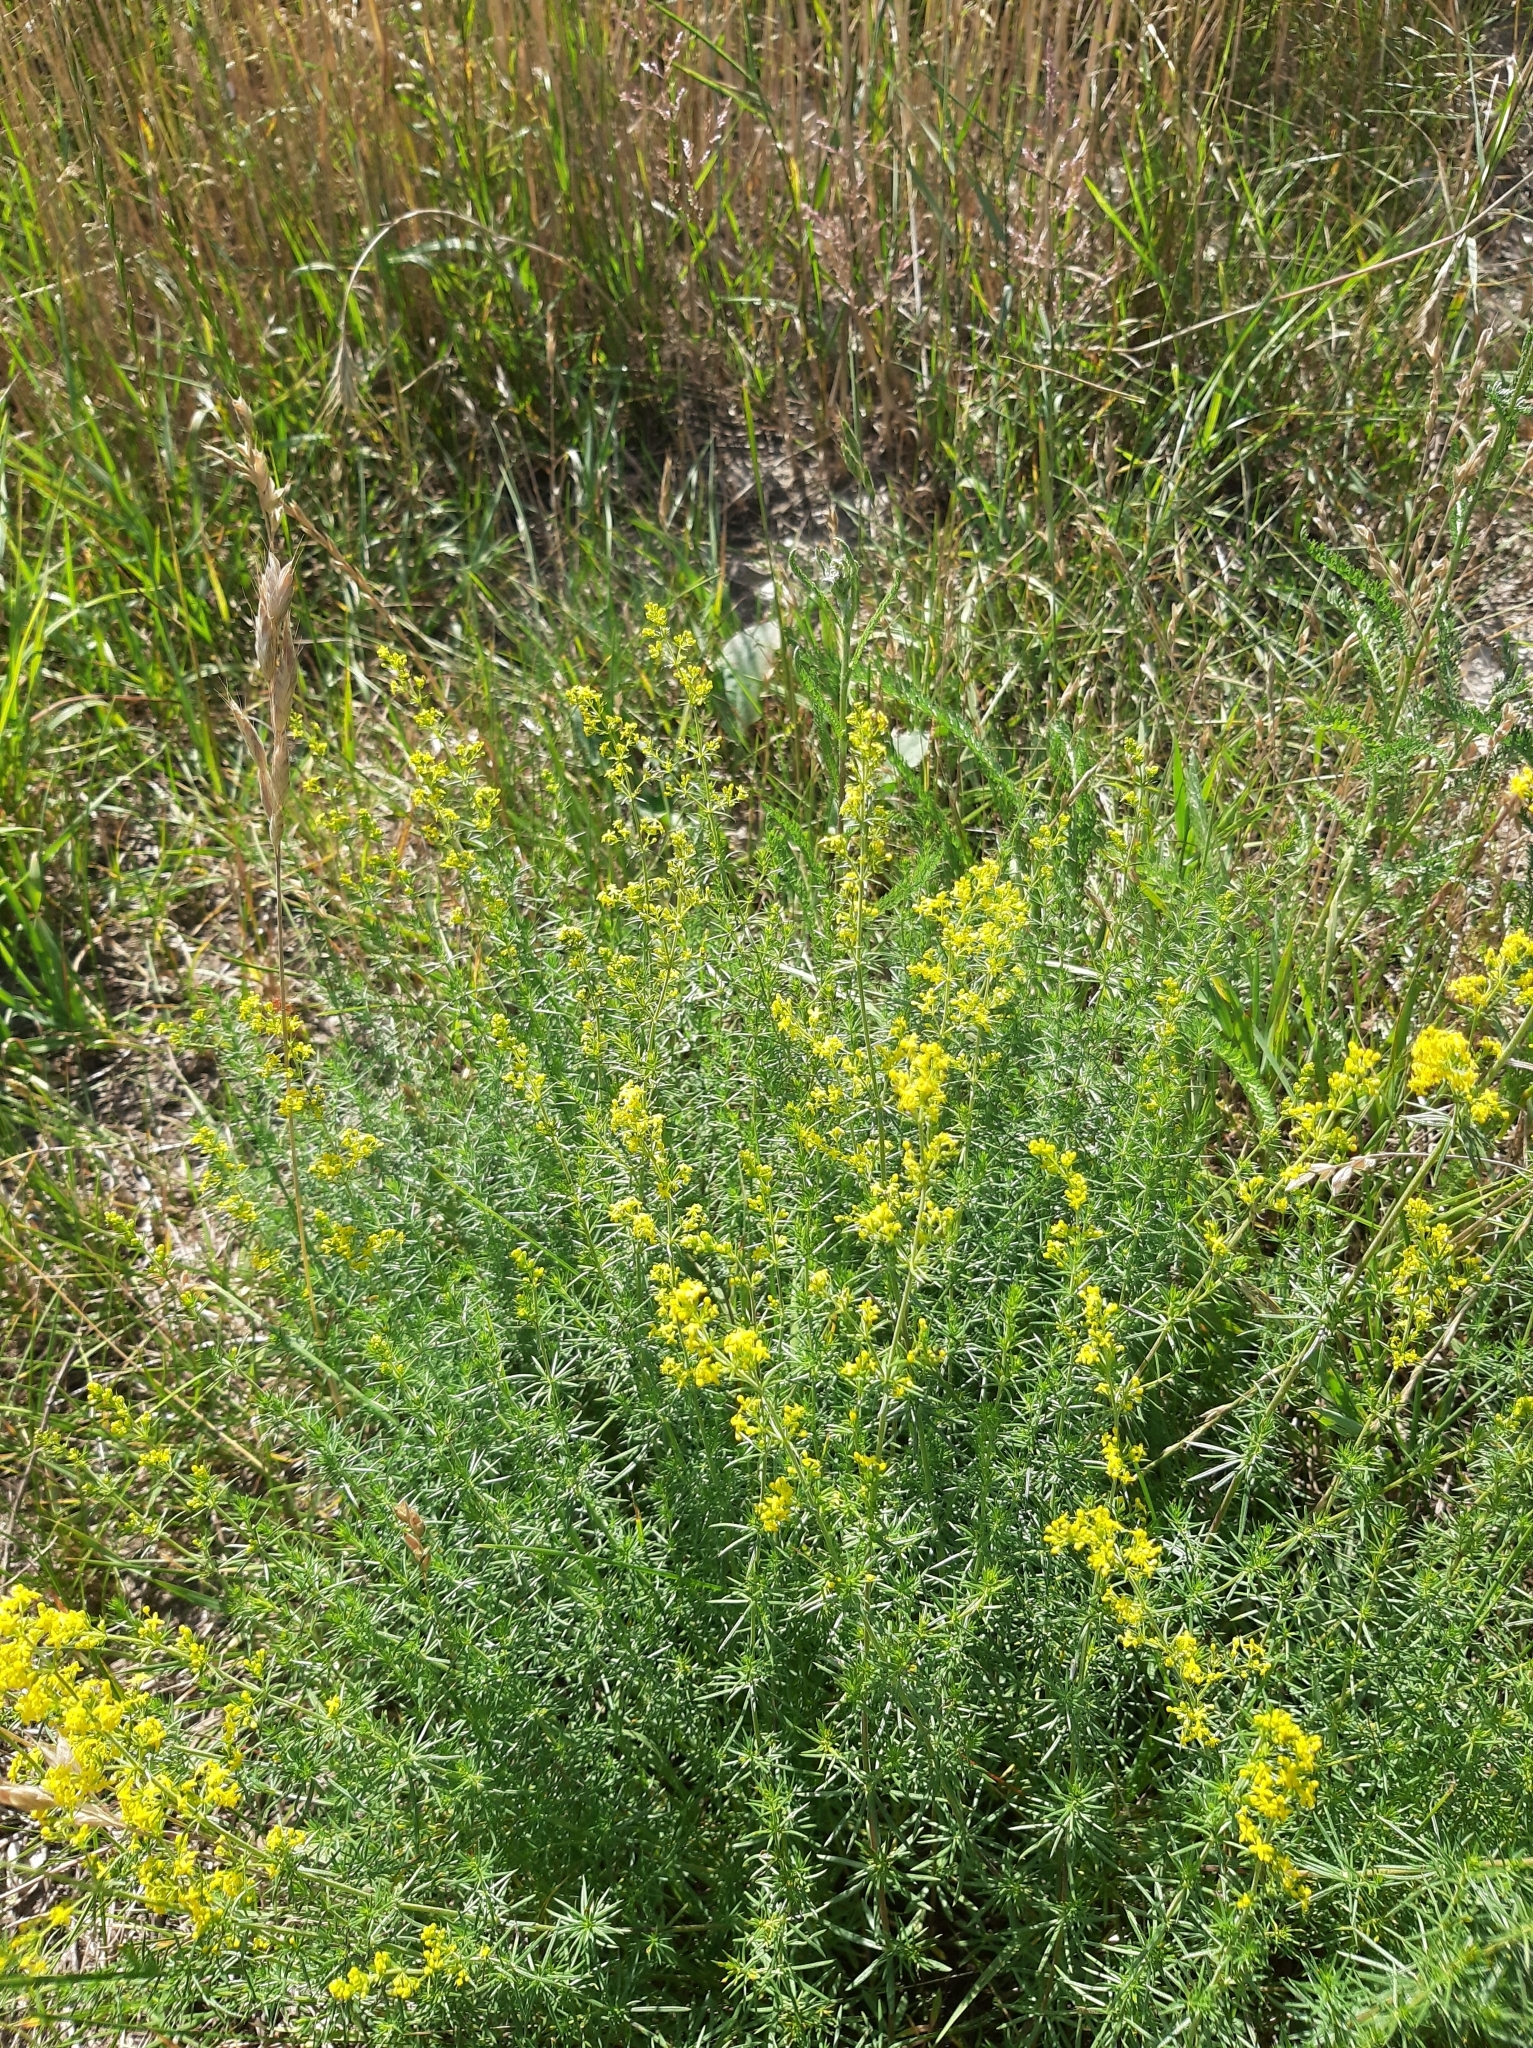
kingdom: Plantae
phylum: Tracheophyta
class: Magnoliopsida
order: Gentianales
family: Rubiaceae
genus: Galium
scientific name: Galium verum
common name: Lady's bedstraw
